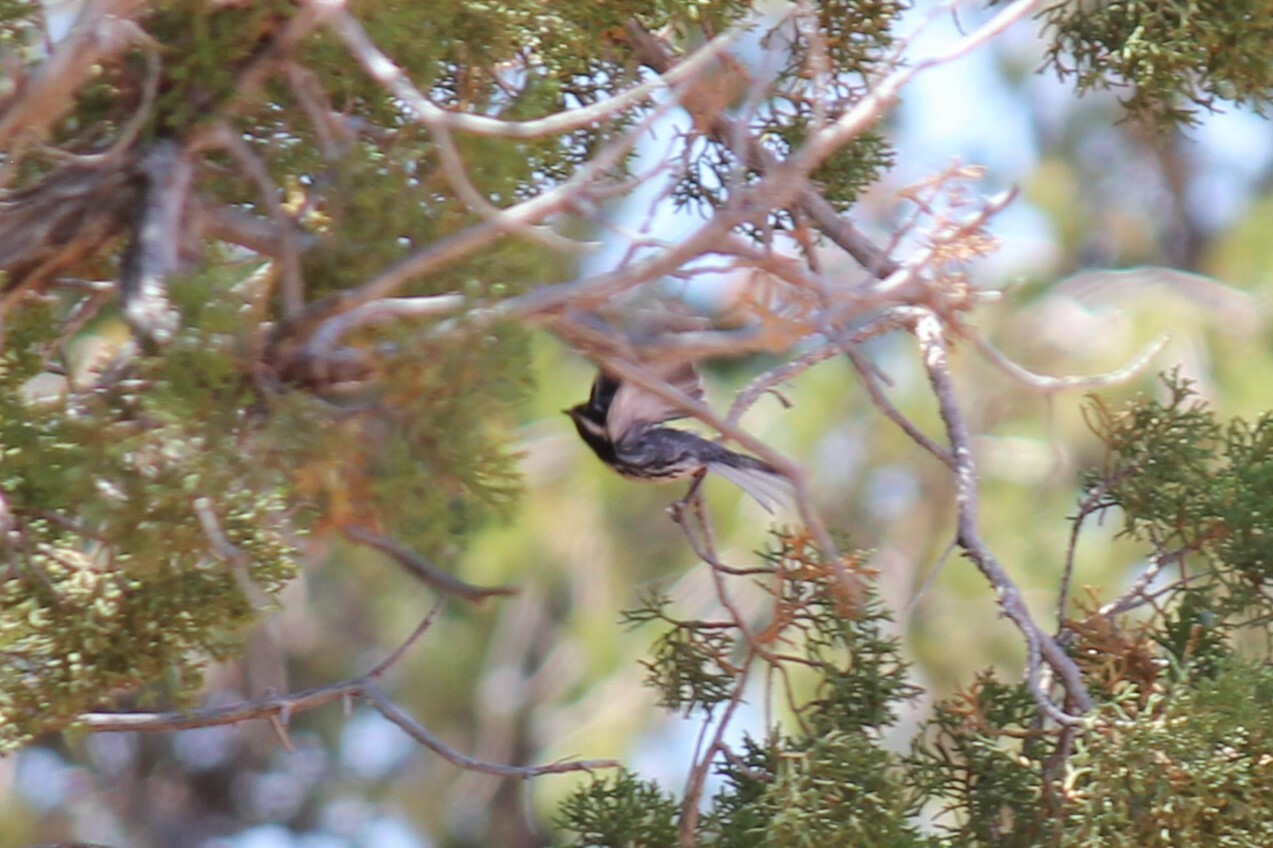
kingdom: Animalia
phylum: Chordata
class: Aves
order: Passeriformes
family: Parulidae
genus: Setophaga
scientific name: Setophaga nigrescens
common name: Black-throated gray warbler
